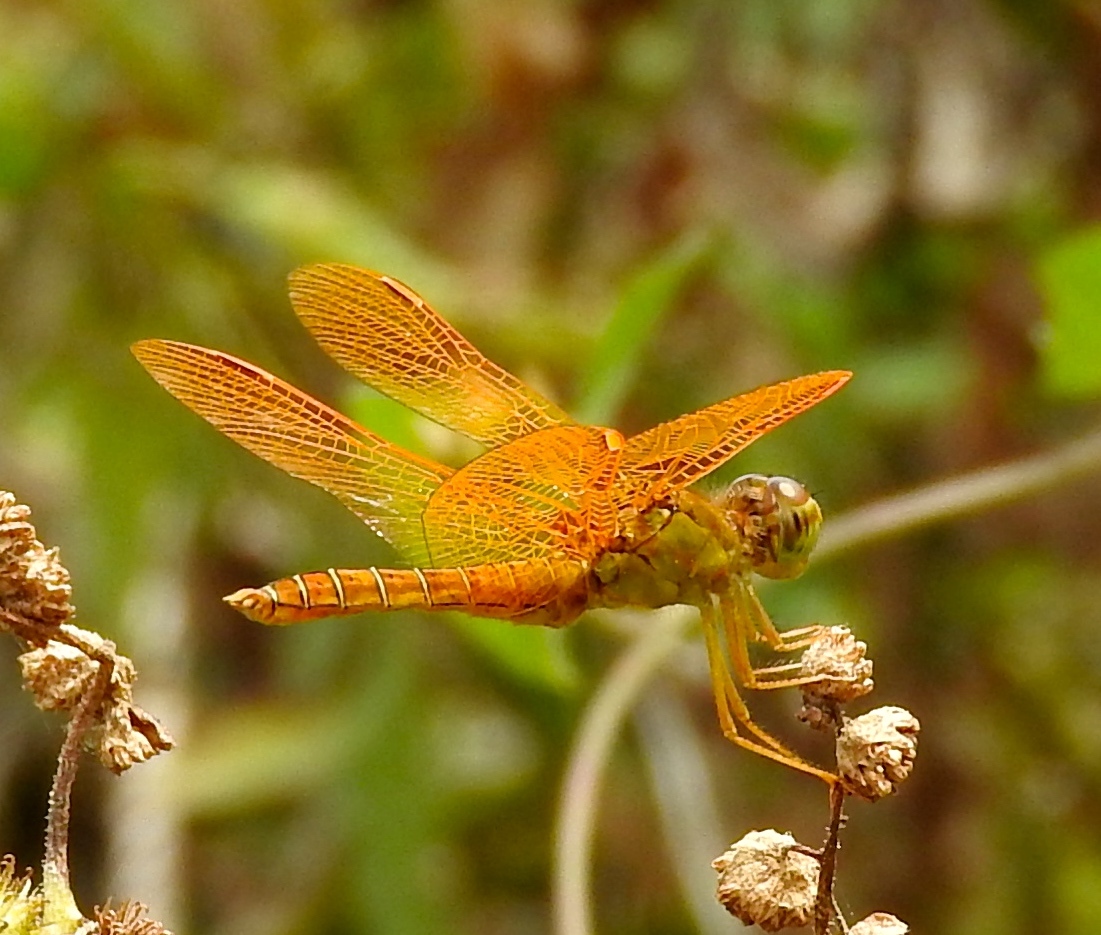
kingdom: Animalia
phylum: Arthropoda
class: Insecta
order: Odonata
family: Libellulidae
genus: Perithemis
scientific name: Perithemis intensa
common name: Mexican amberwing
